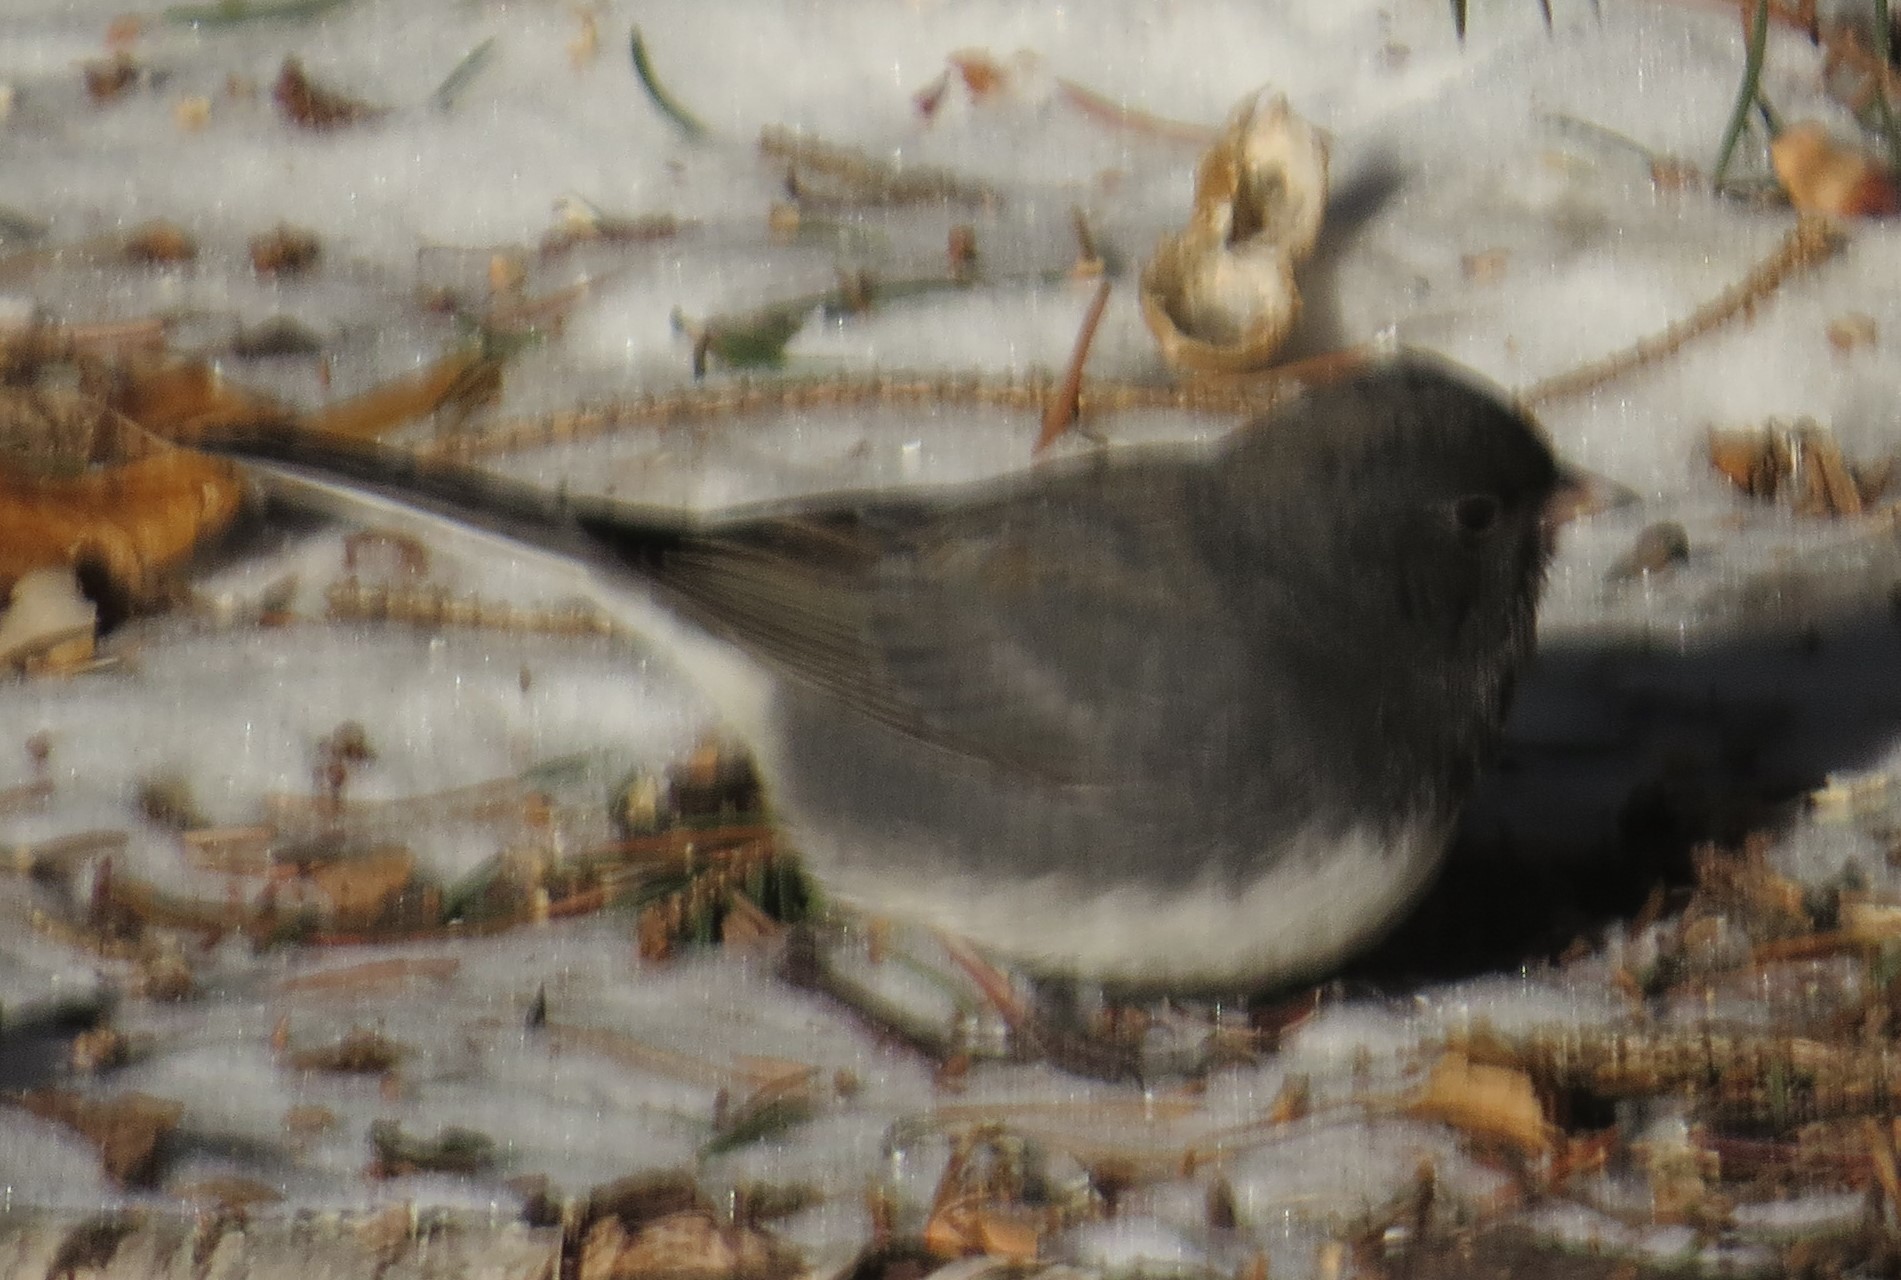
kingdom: Animalia
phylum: Chordata
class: Aves
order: Passeriformes
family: Passerellidae
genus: Junco
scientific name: Junco hyemalis
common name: Dark-eyed junco
